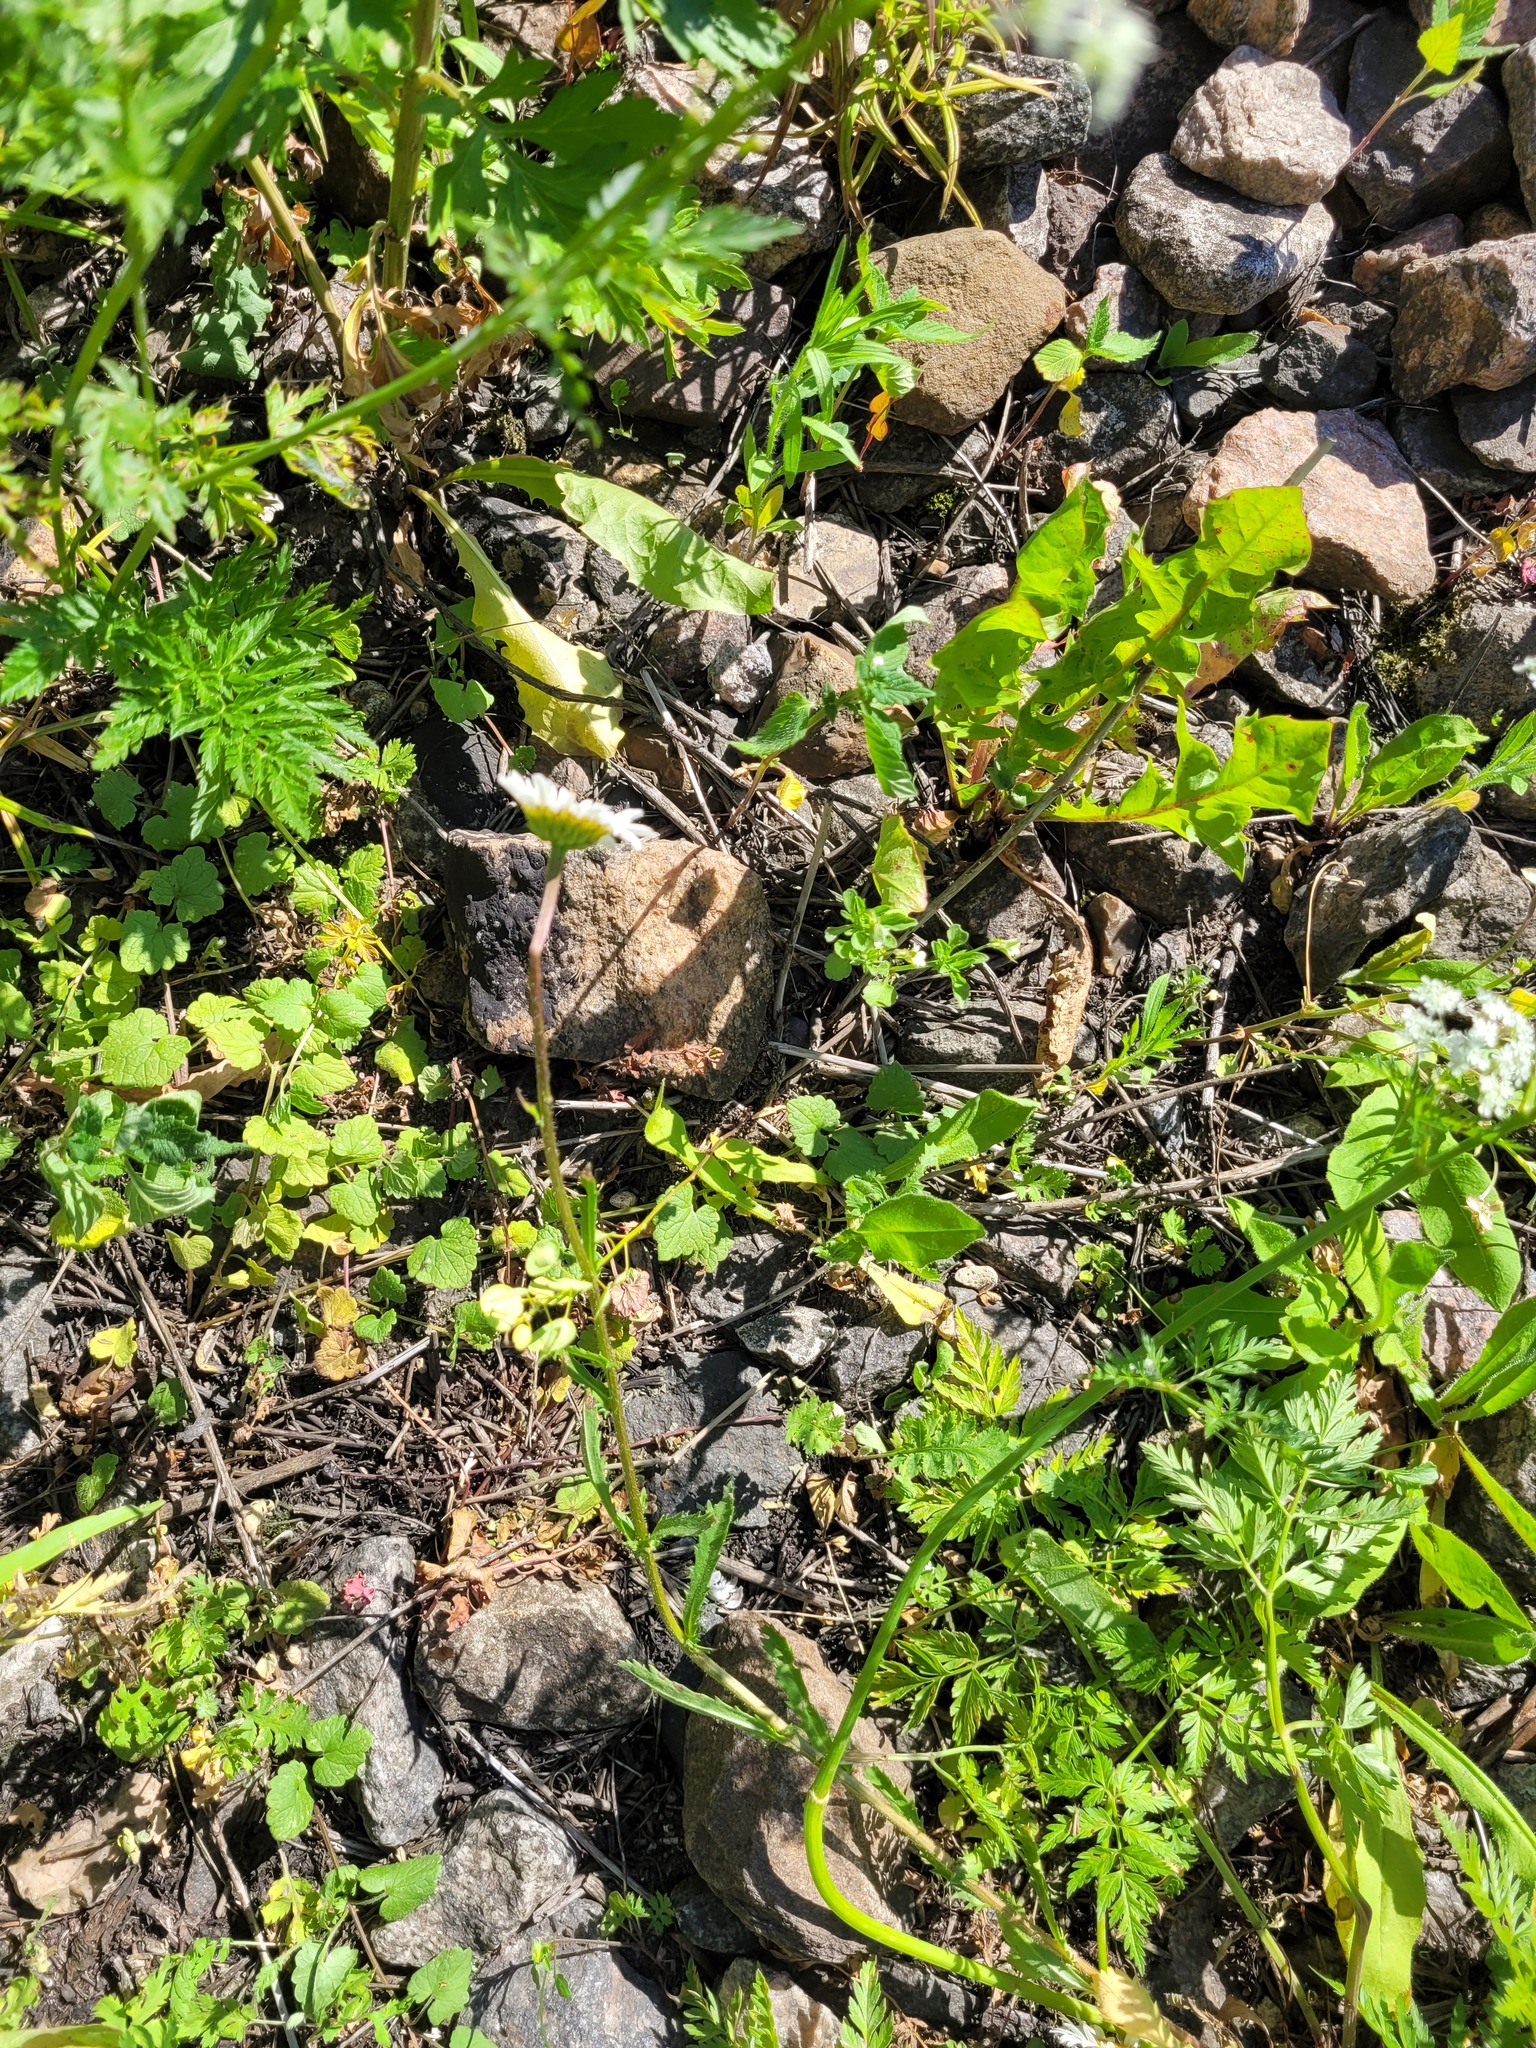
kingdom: Plantae
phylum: Tracheophyta
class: Magnoliopsida
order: Asterales
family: Asteraceae
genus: Leucanthemum
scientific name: Leucanthemum vulgare
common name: Oxeye daisy
